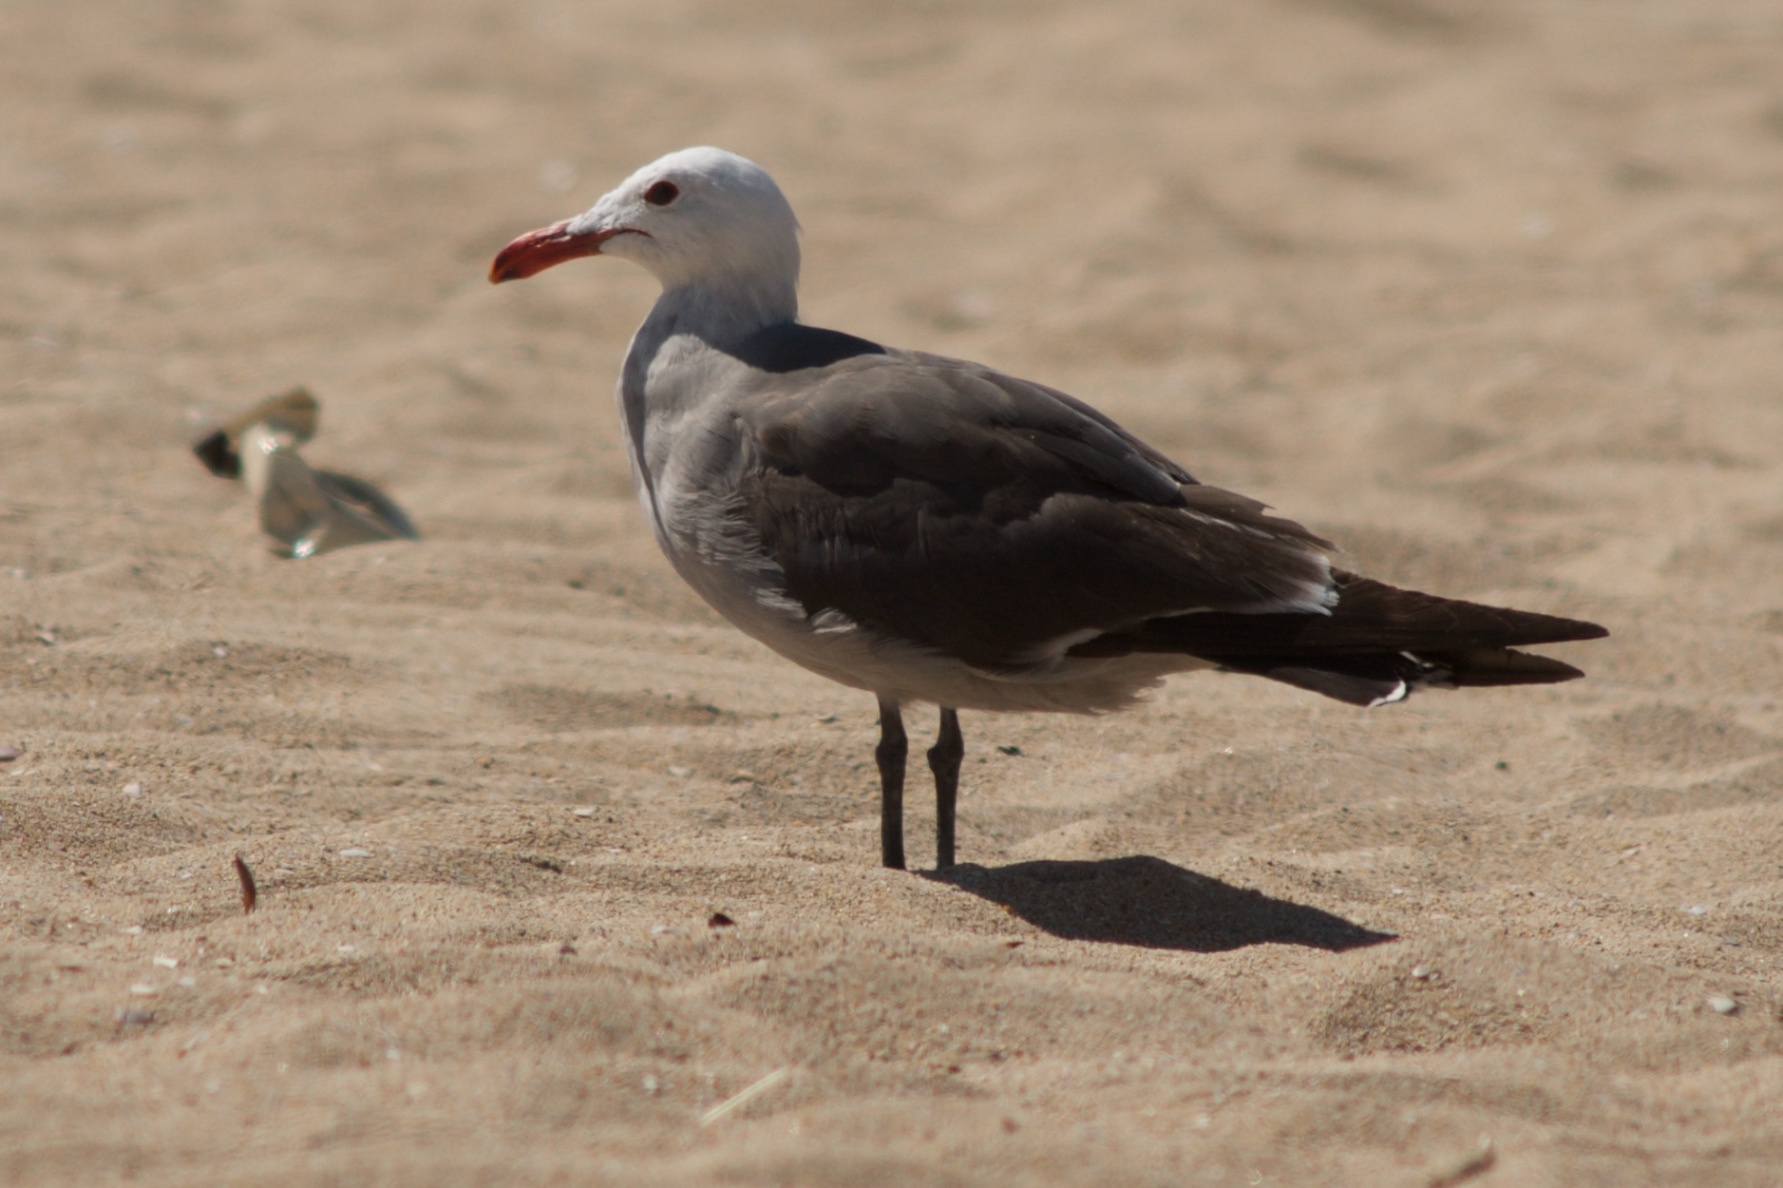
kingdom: Animalia
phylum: Chordata
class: Aves
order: Charadriiformes
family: Laridae
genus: Larus
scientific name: Larus heermanni
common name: Heermann's gull
